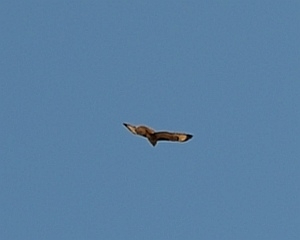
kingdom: Animalia
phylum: Chordata
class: Aves
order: Accipitriformes
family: Accipitridae
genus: Buteo
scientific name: Buteo buteo
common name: Common buzzard
